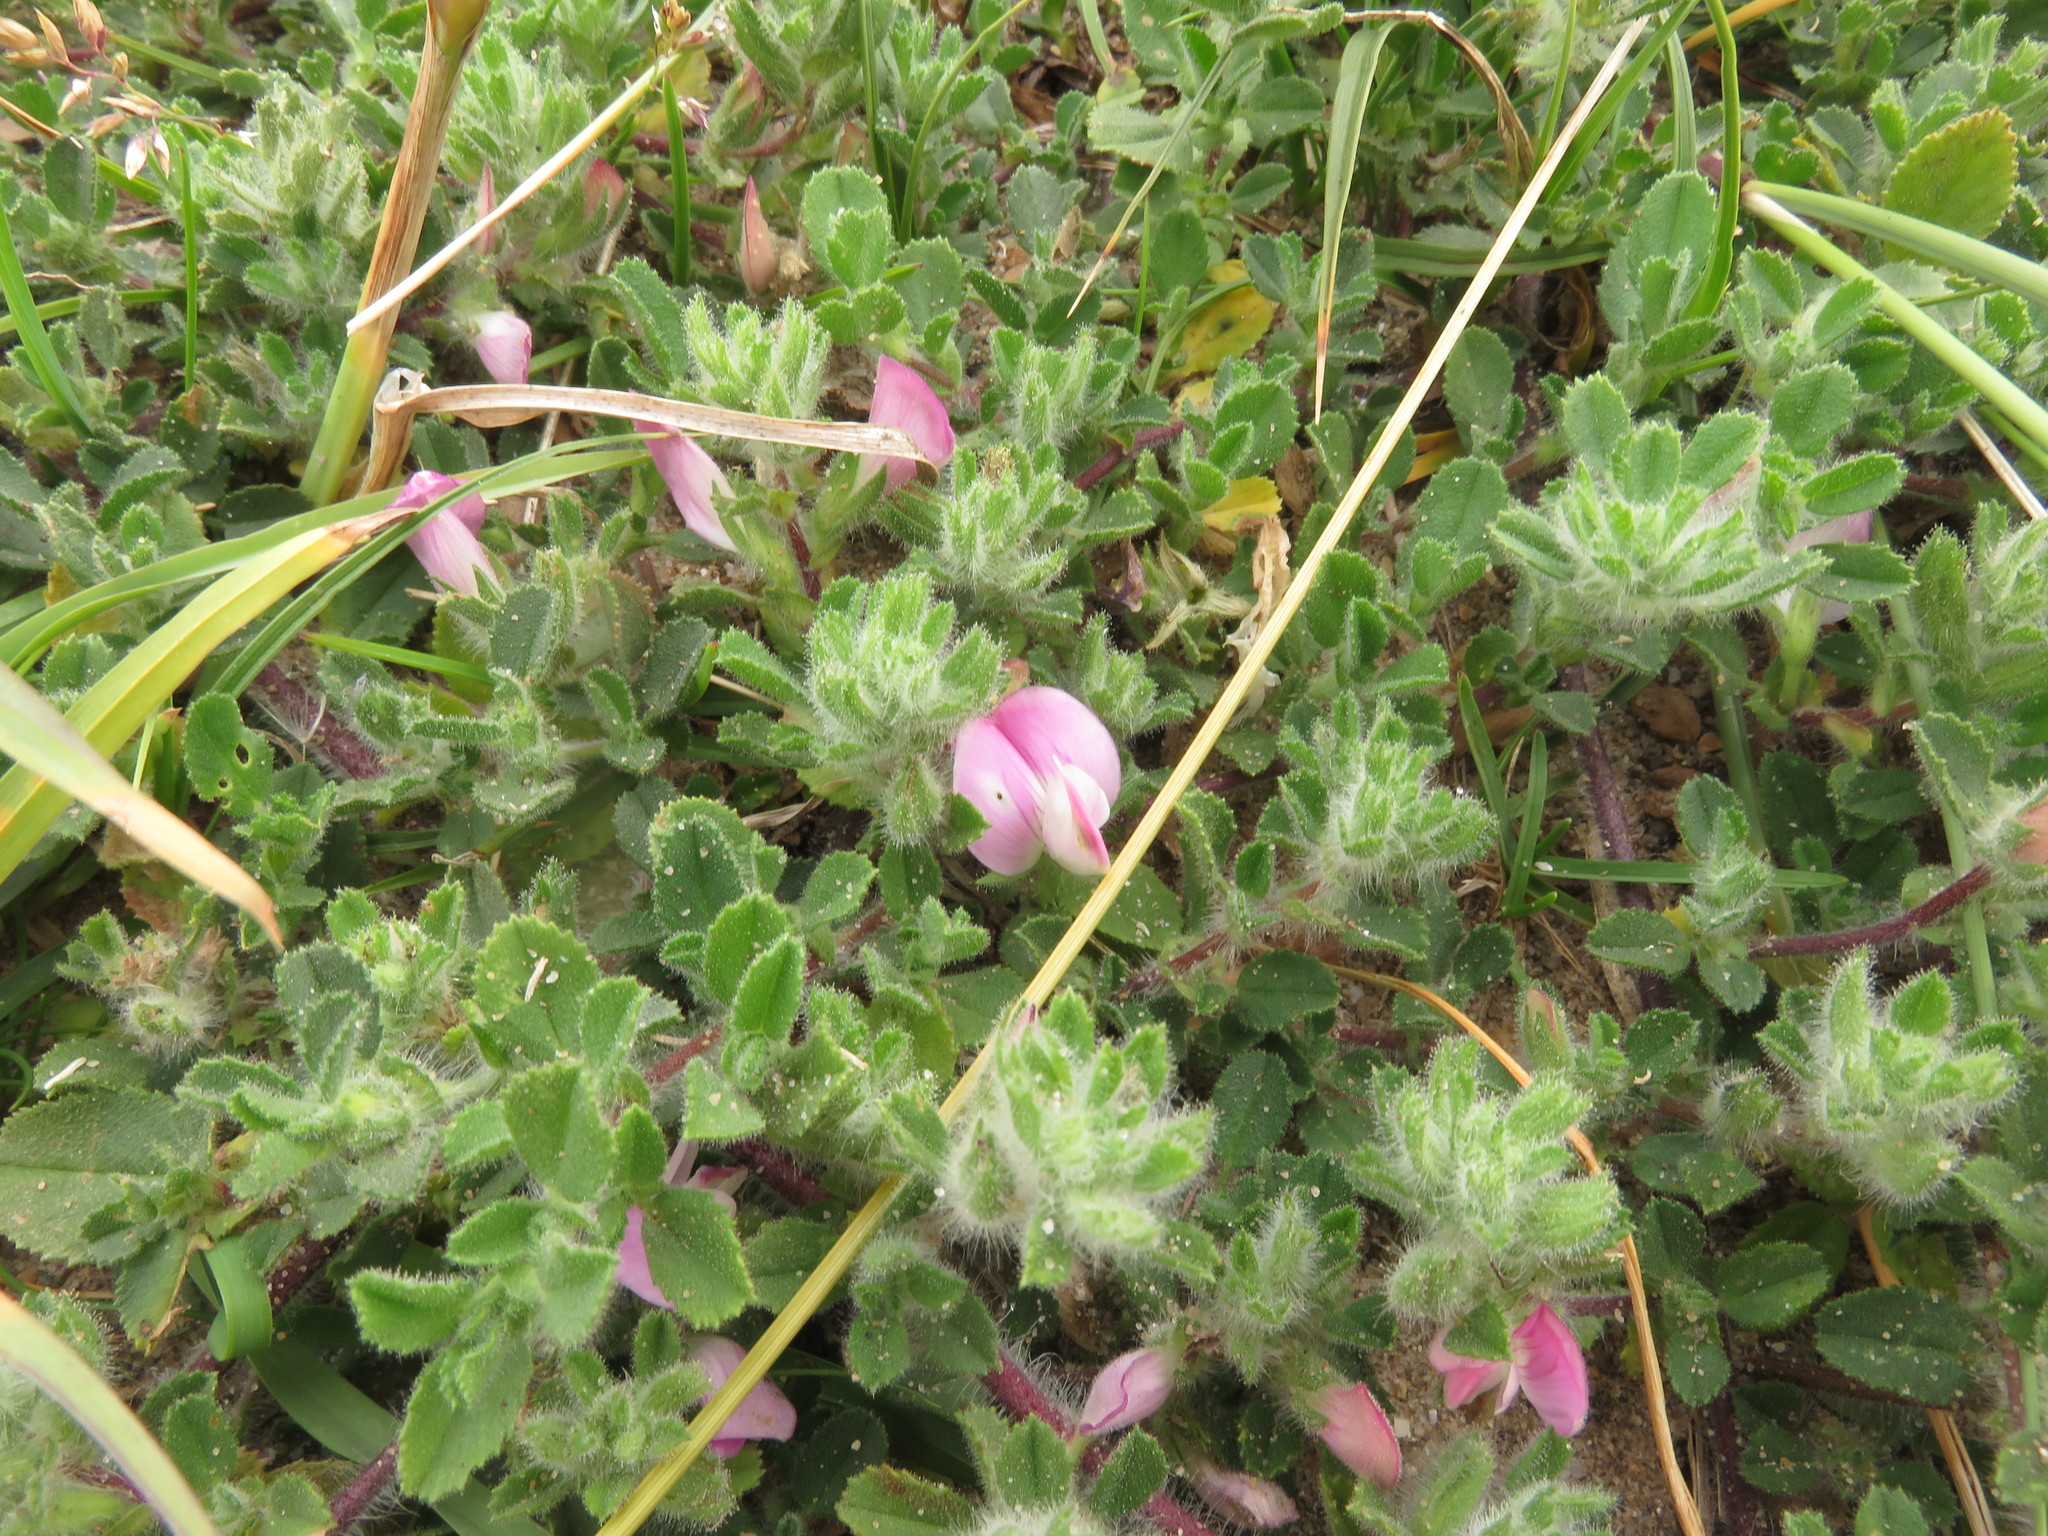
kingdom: Plantae
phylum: Tracheophyta
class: Magnoliopsida
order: Fabales
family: Fabaceae
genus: Ononis
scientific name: Ononis spinosa
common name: Spiny restharrow
